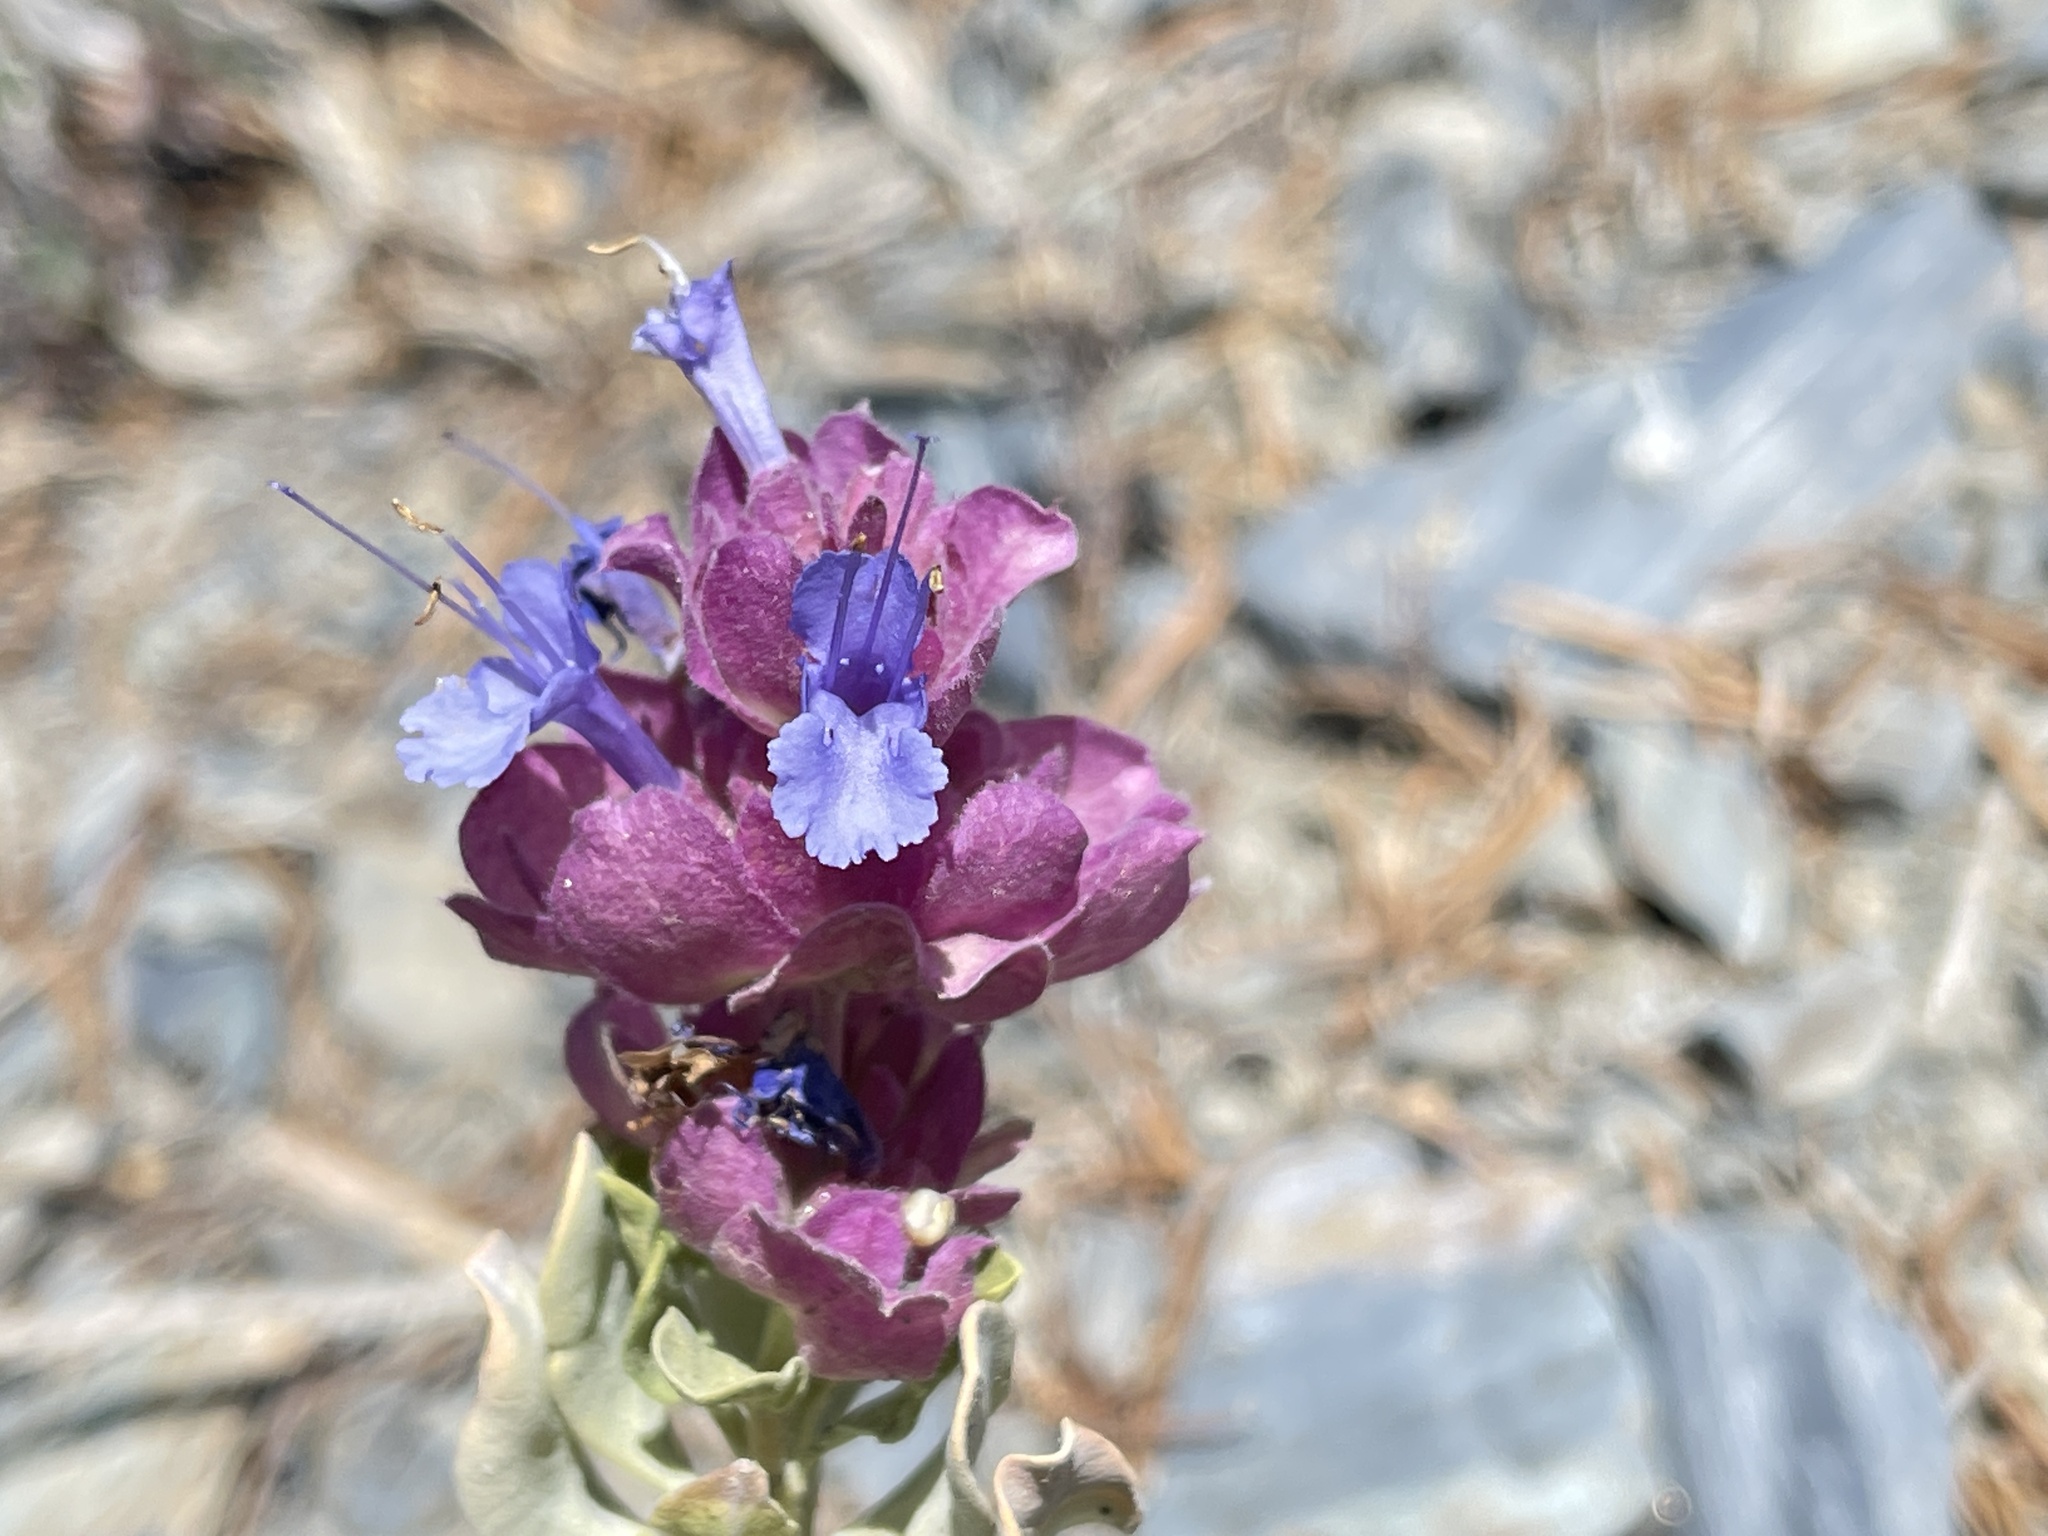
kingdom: Plantae
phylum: Tracheophyta
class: Magnoliopsida
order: Lamiales
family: Lamiaceae
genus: Salvia
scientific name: Salvia pachyphylla
